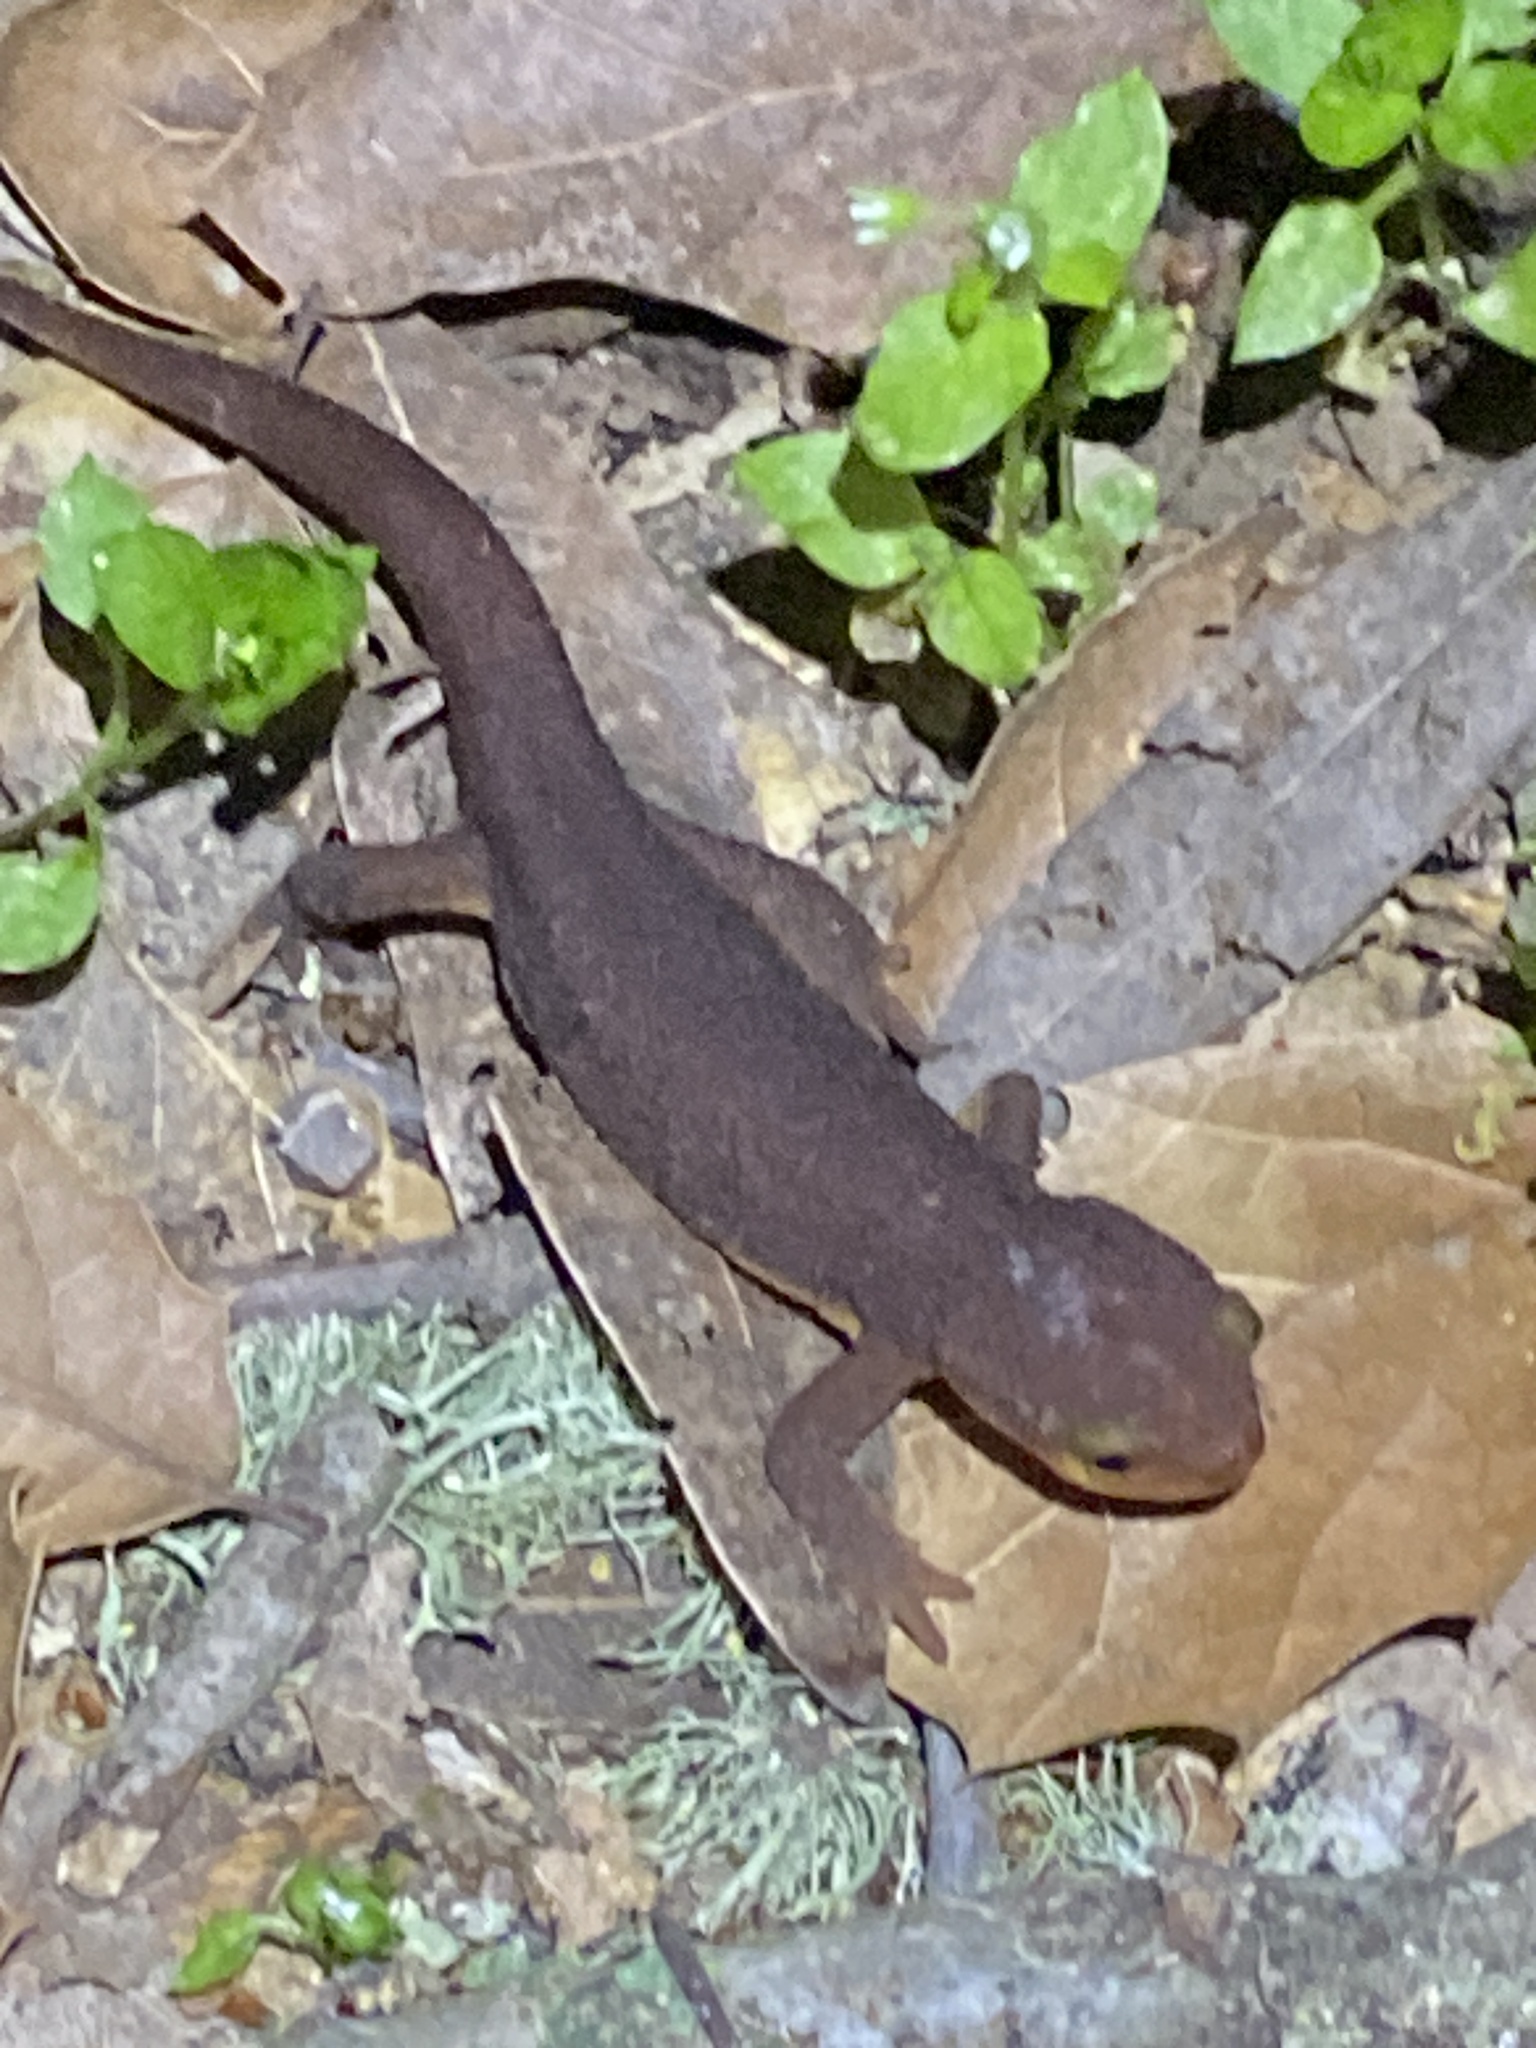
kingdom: Animalia
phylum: Chordata
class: Amphibia
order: Caudata
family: Salamandridae
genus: Taricha
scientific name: Taricha torosa
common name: California newt
